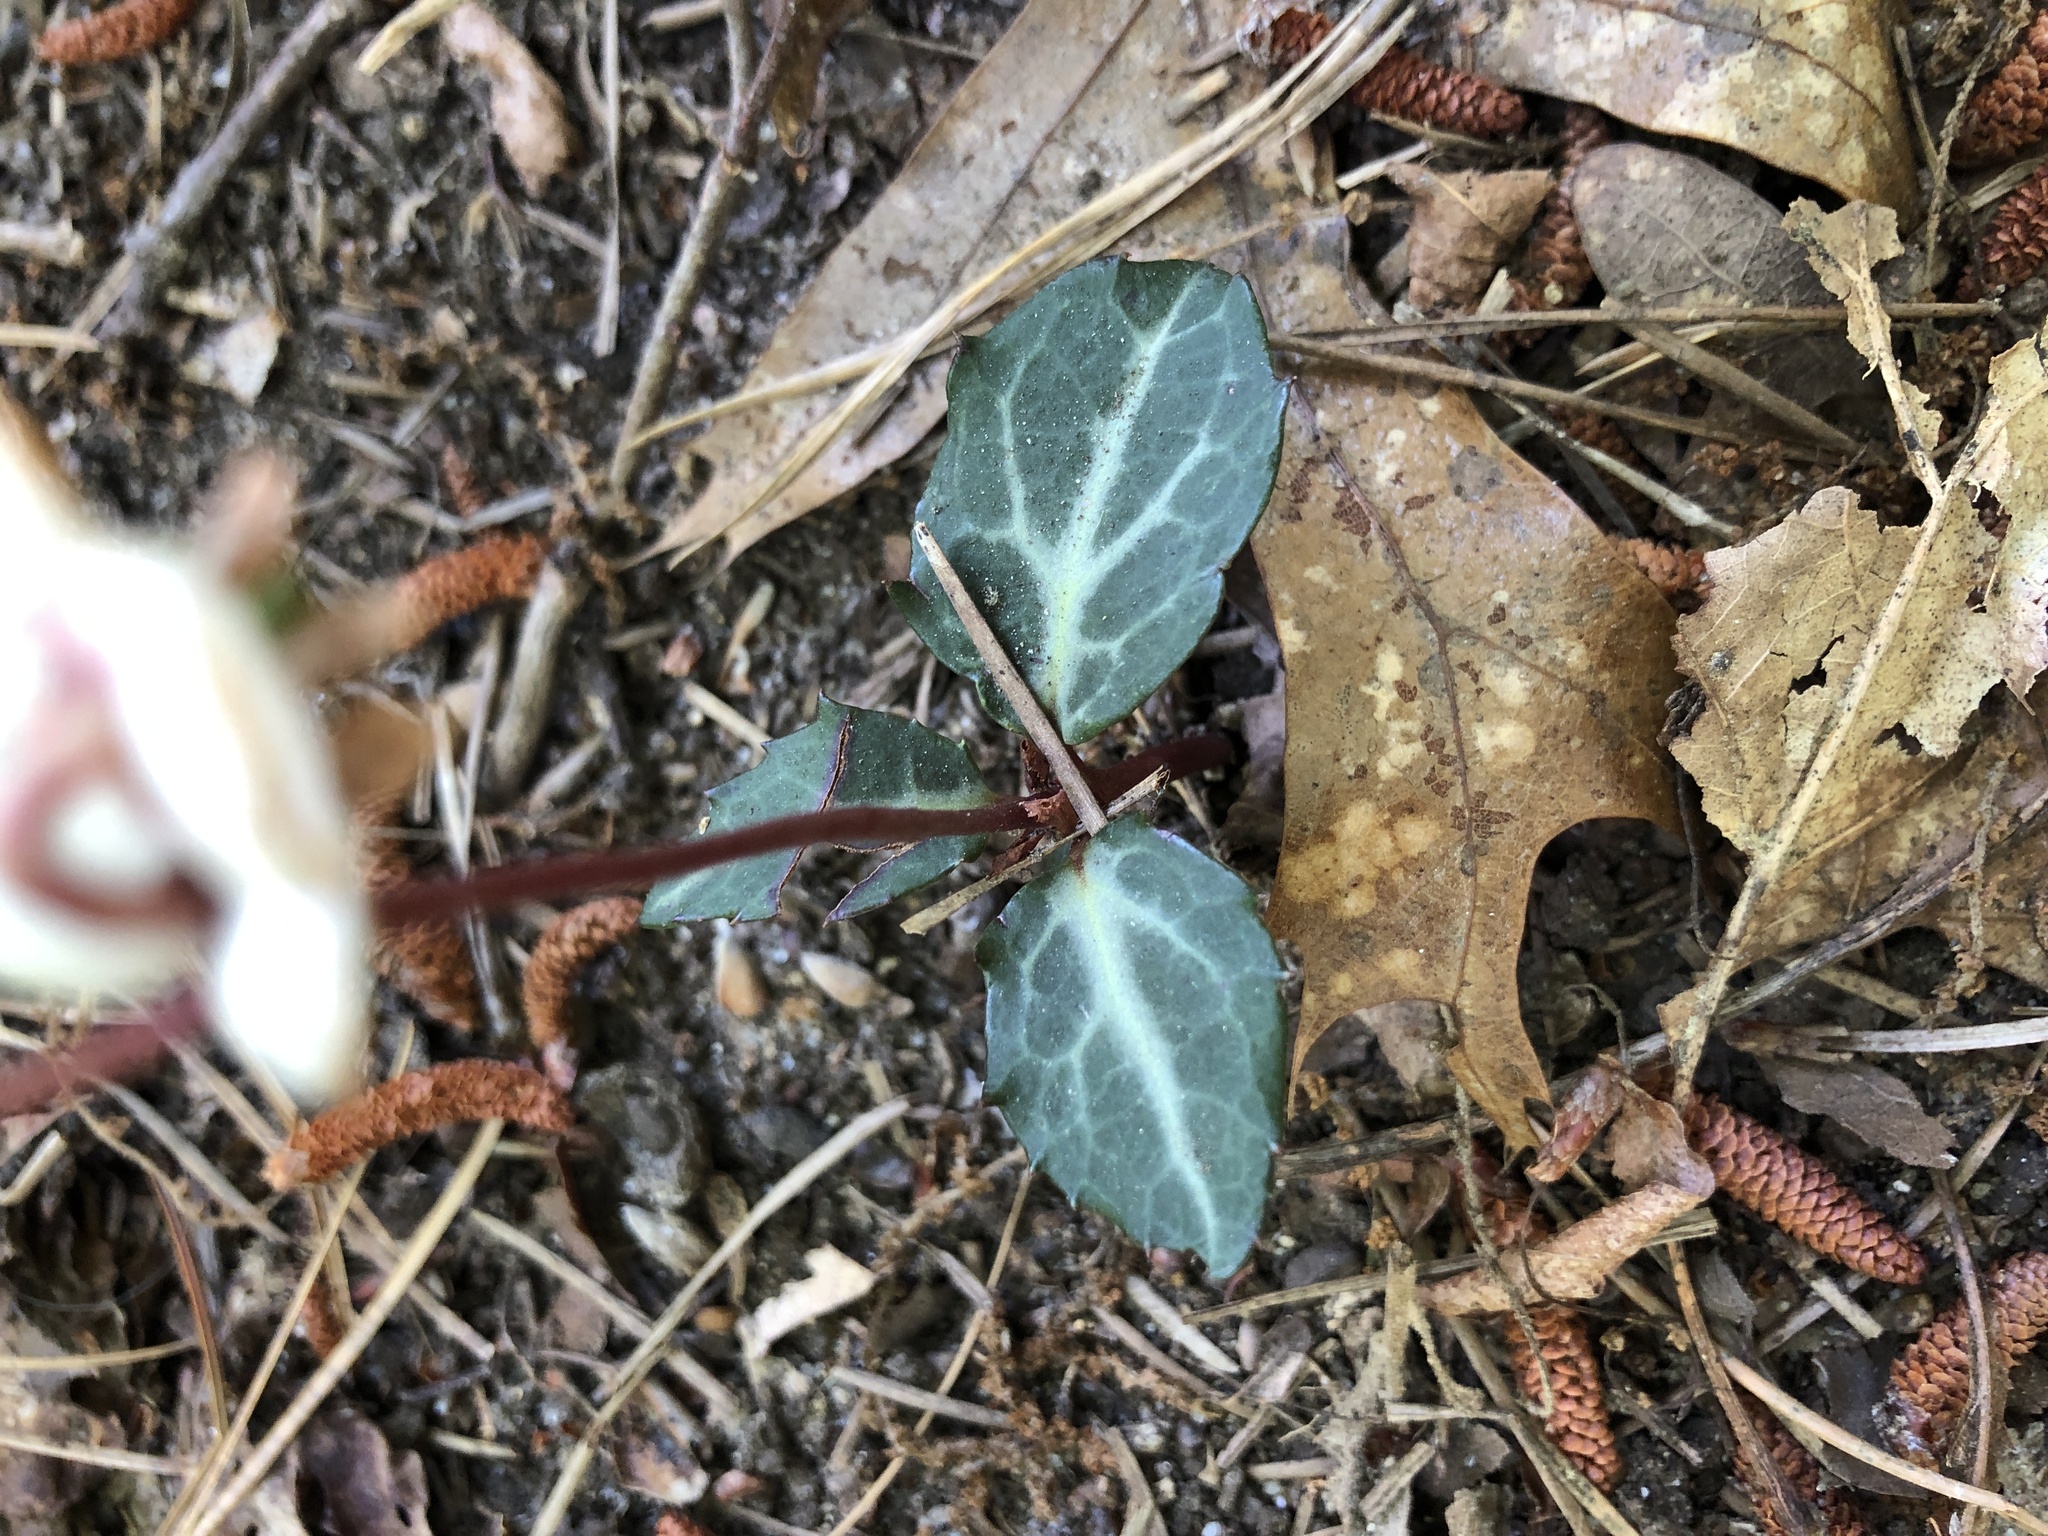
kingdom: Plantae
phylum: Tracheophyta
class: Magnoliopsida
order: Ericales
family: Ericaceae
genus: Chimaphila
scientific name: Chimaphila maculata
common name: Spotted pipsissewa
